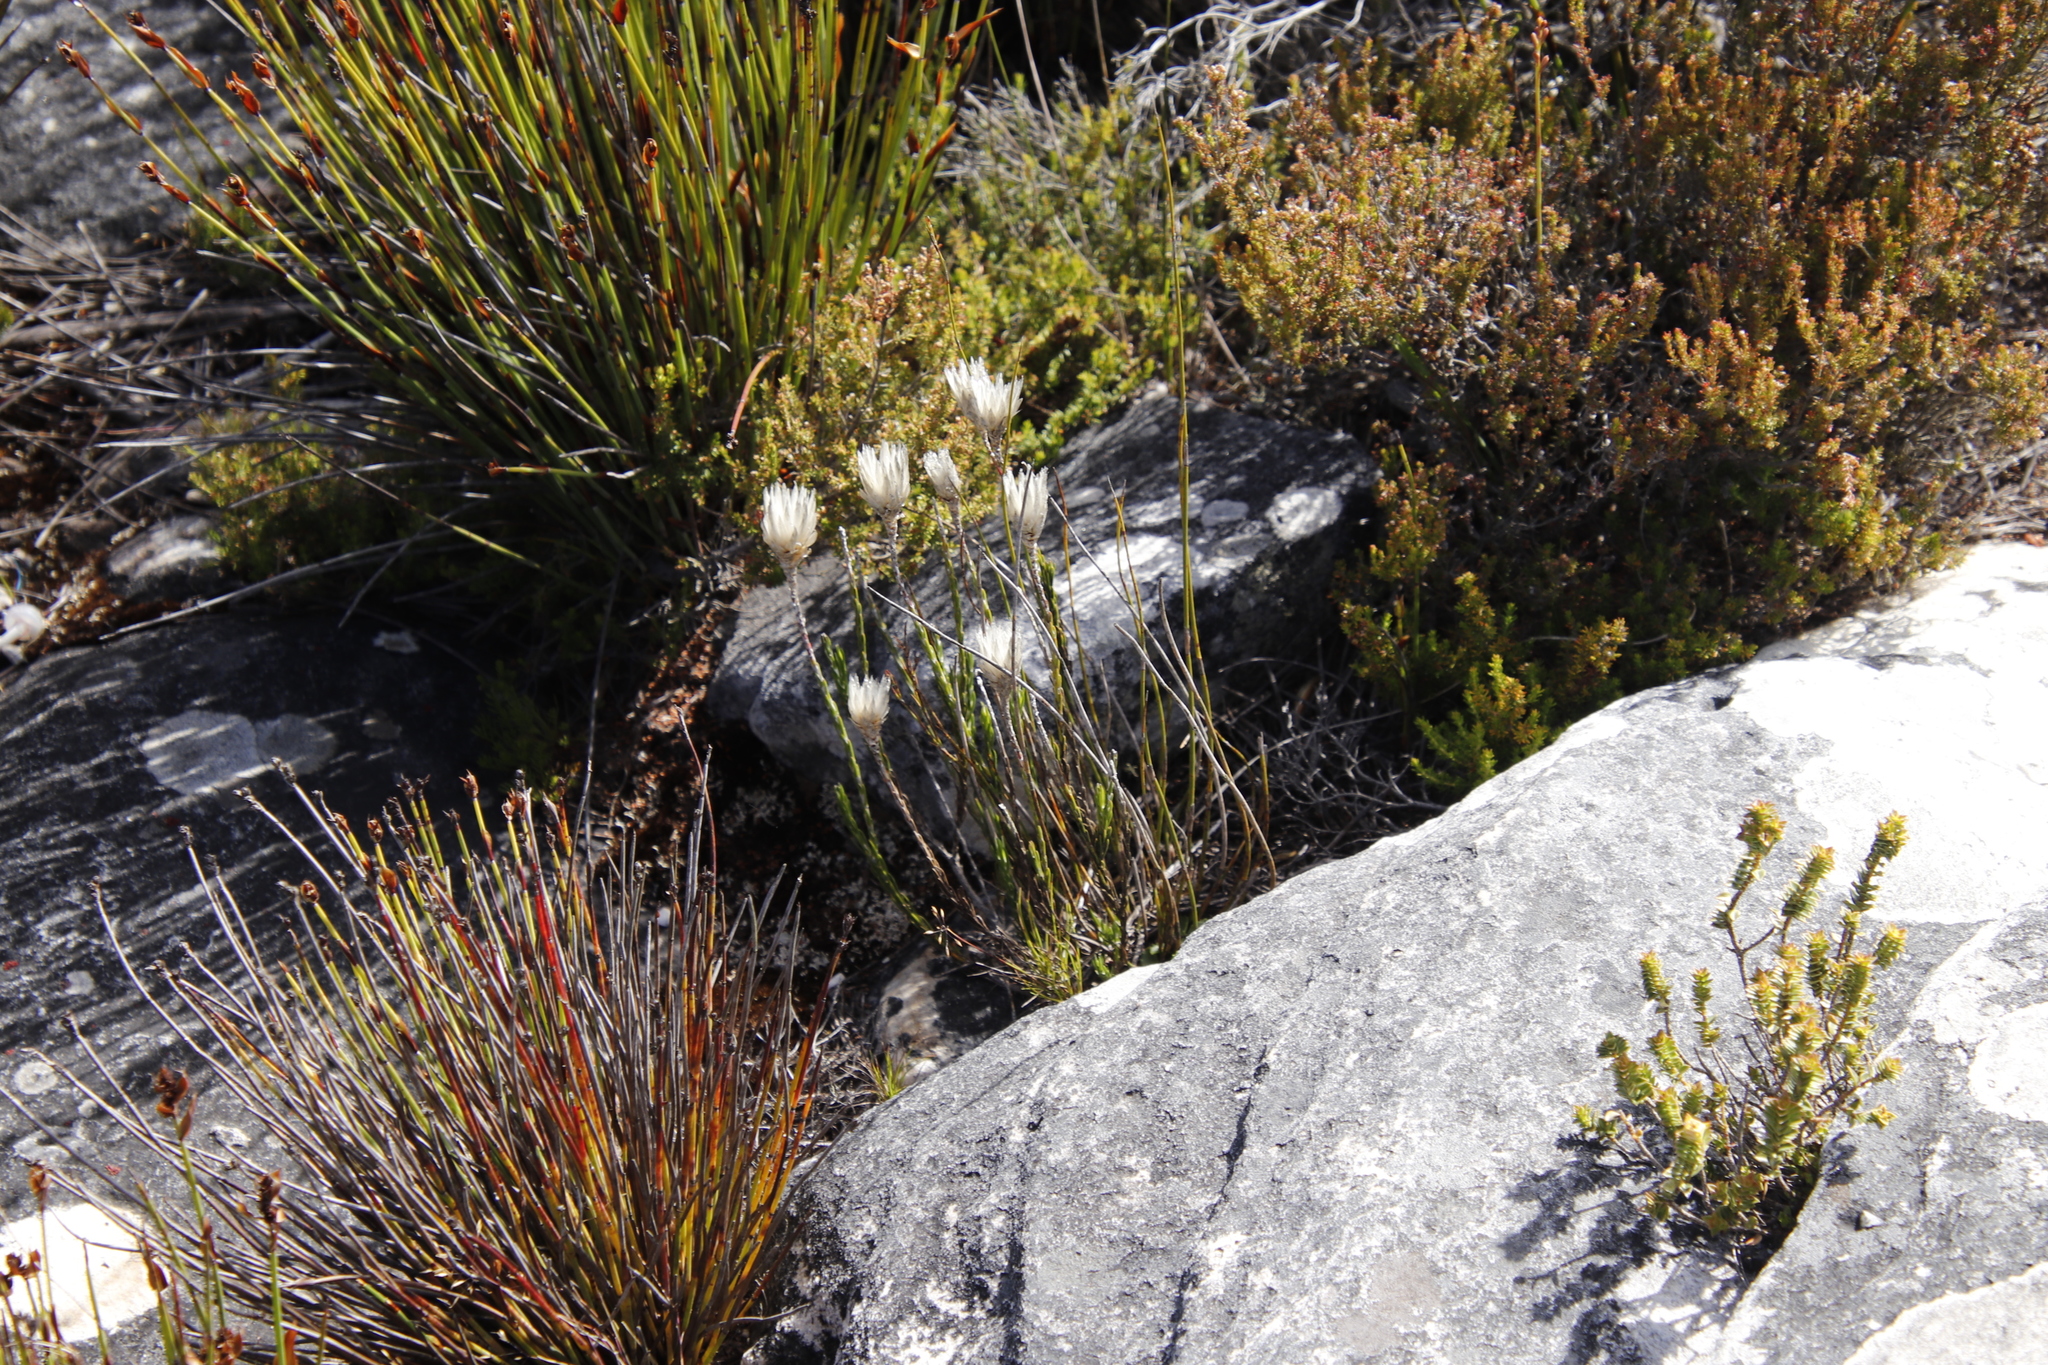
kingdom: Plantae
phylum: Tracheophyta
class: Magnoliopsida
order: Asterales
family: Asteraceae
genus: Edmondia
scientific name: Edmondia pinifolia
